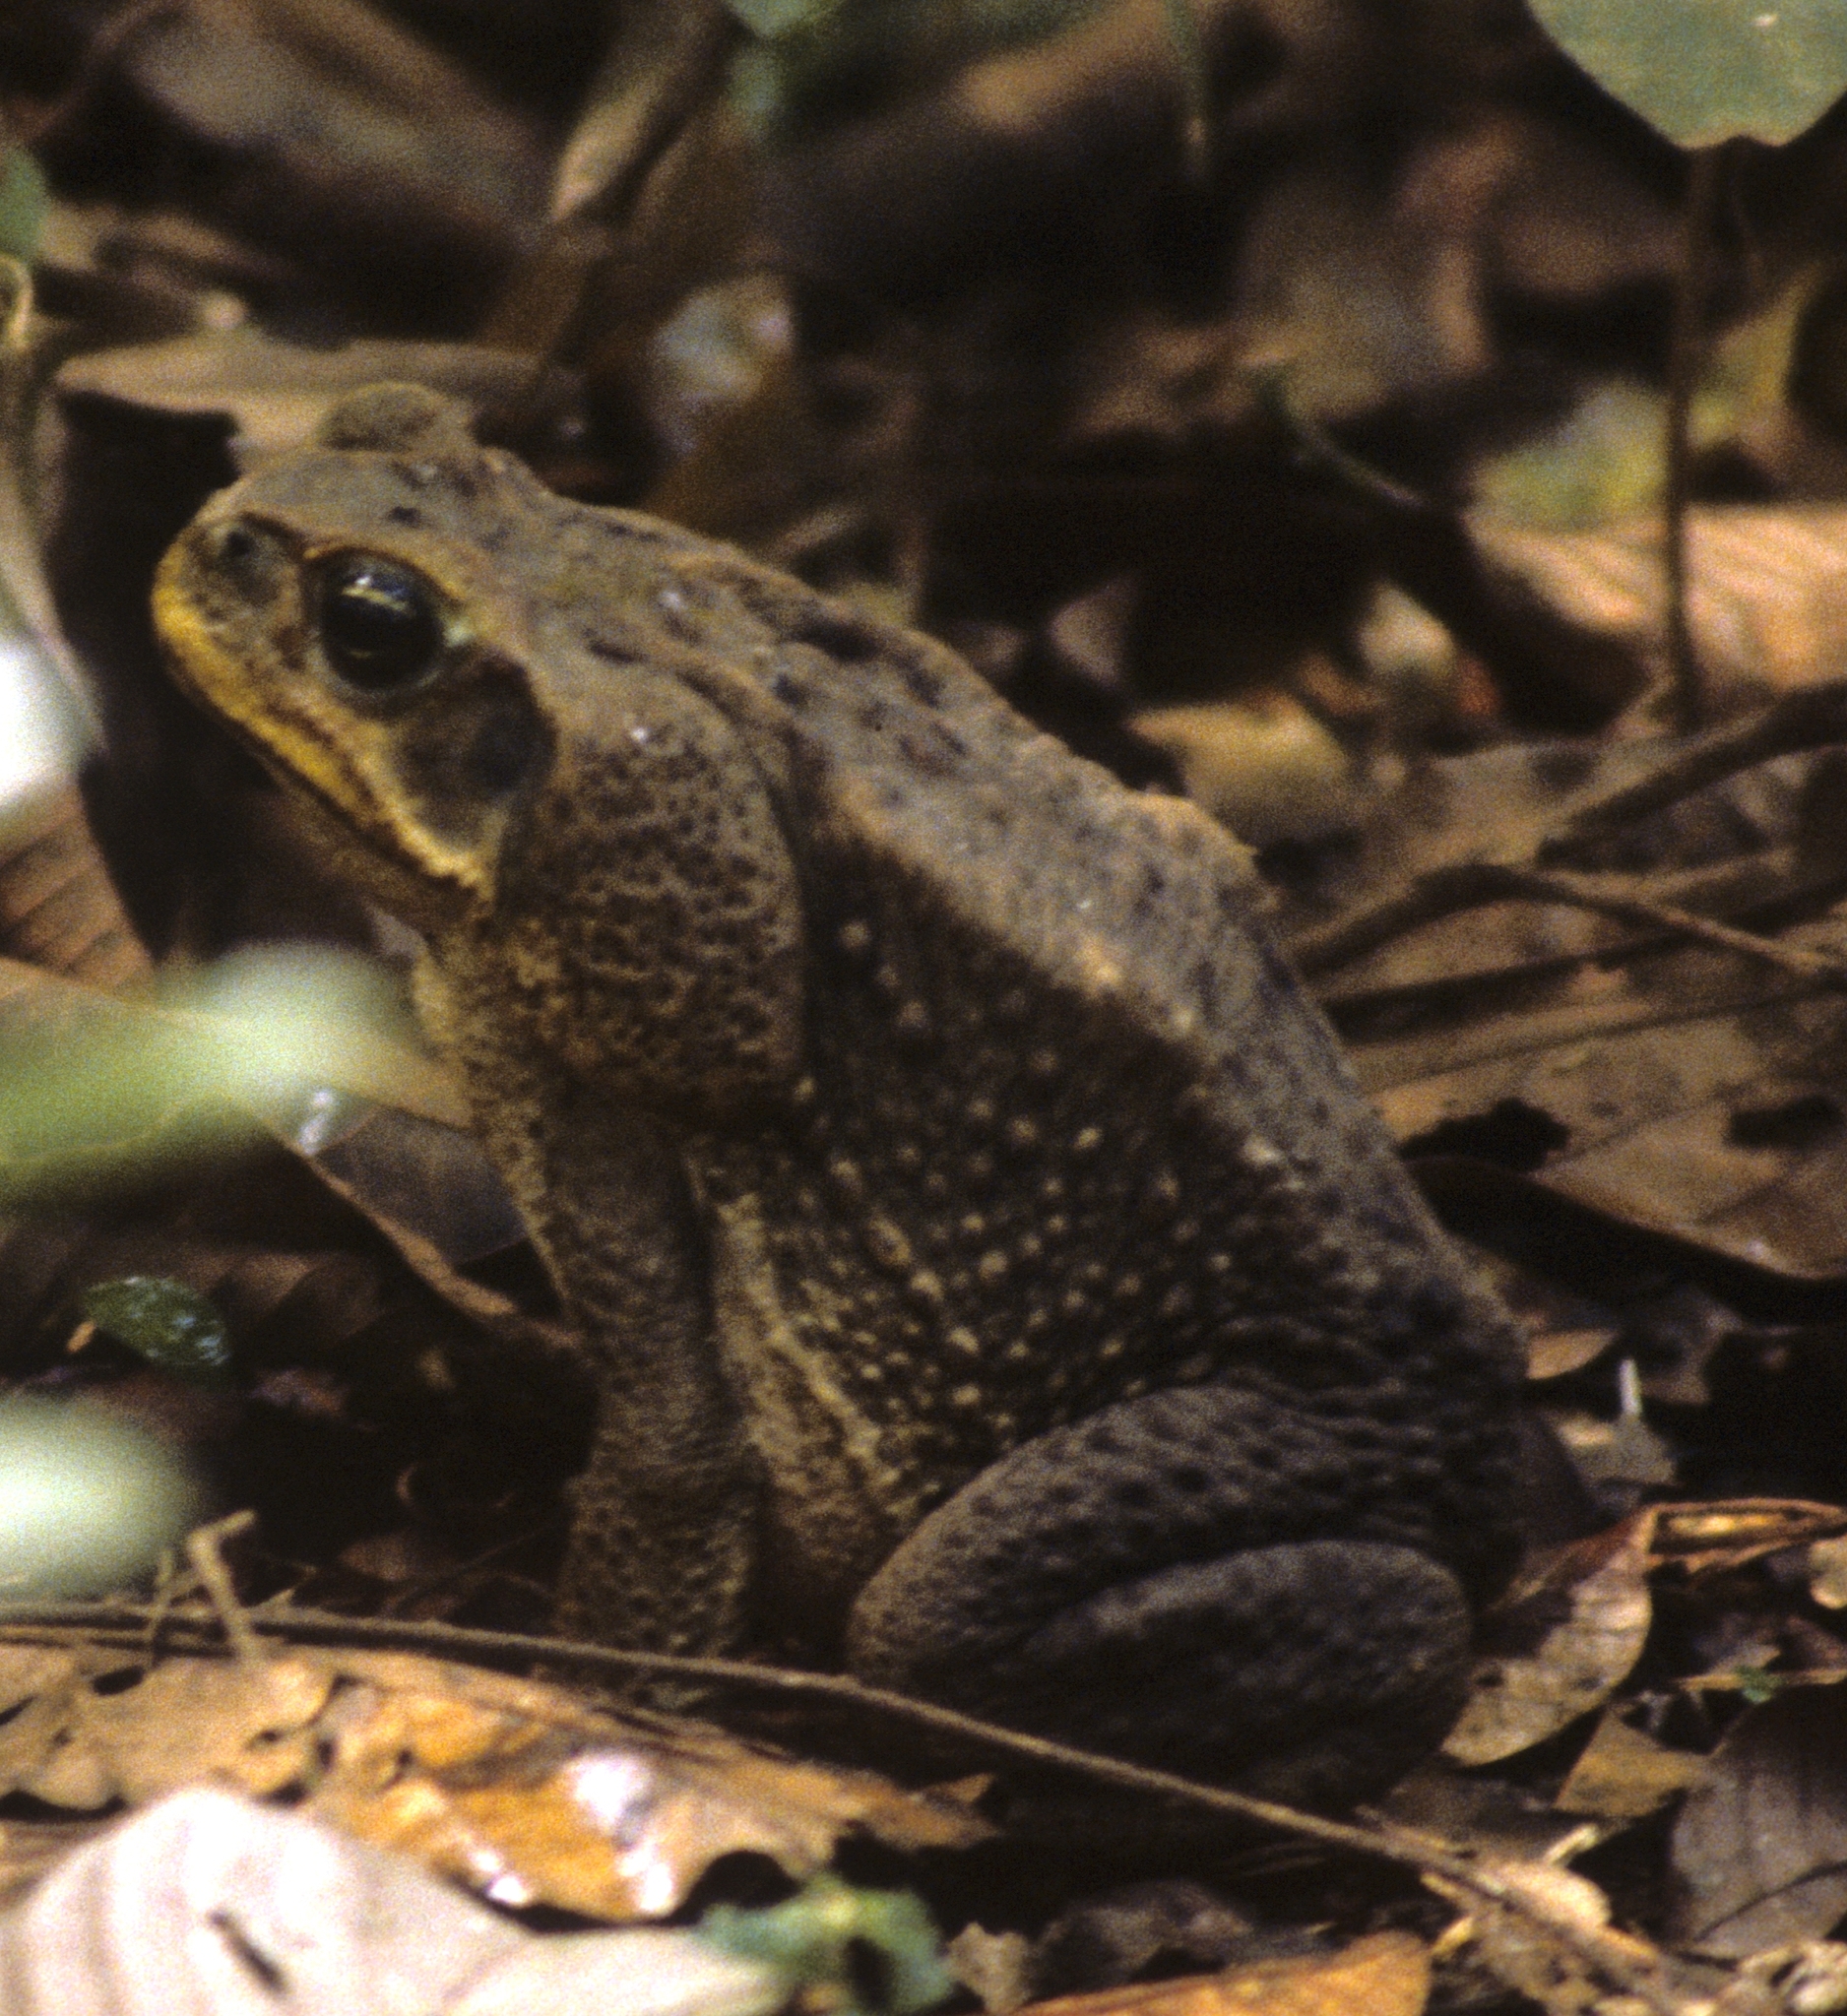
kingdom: Animalia
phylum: Chordata
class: Amphibia
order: Anura
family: Bufonidae
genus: Rhinella
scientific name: Rhinella horribilis
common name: Mesoamerican cane toad
